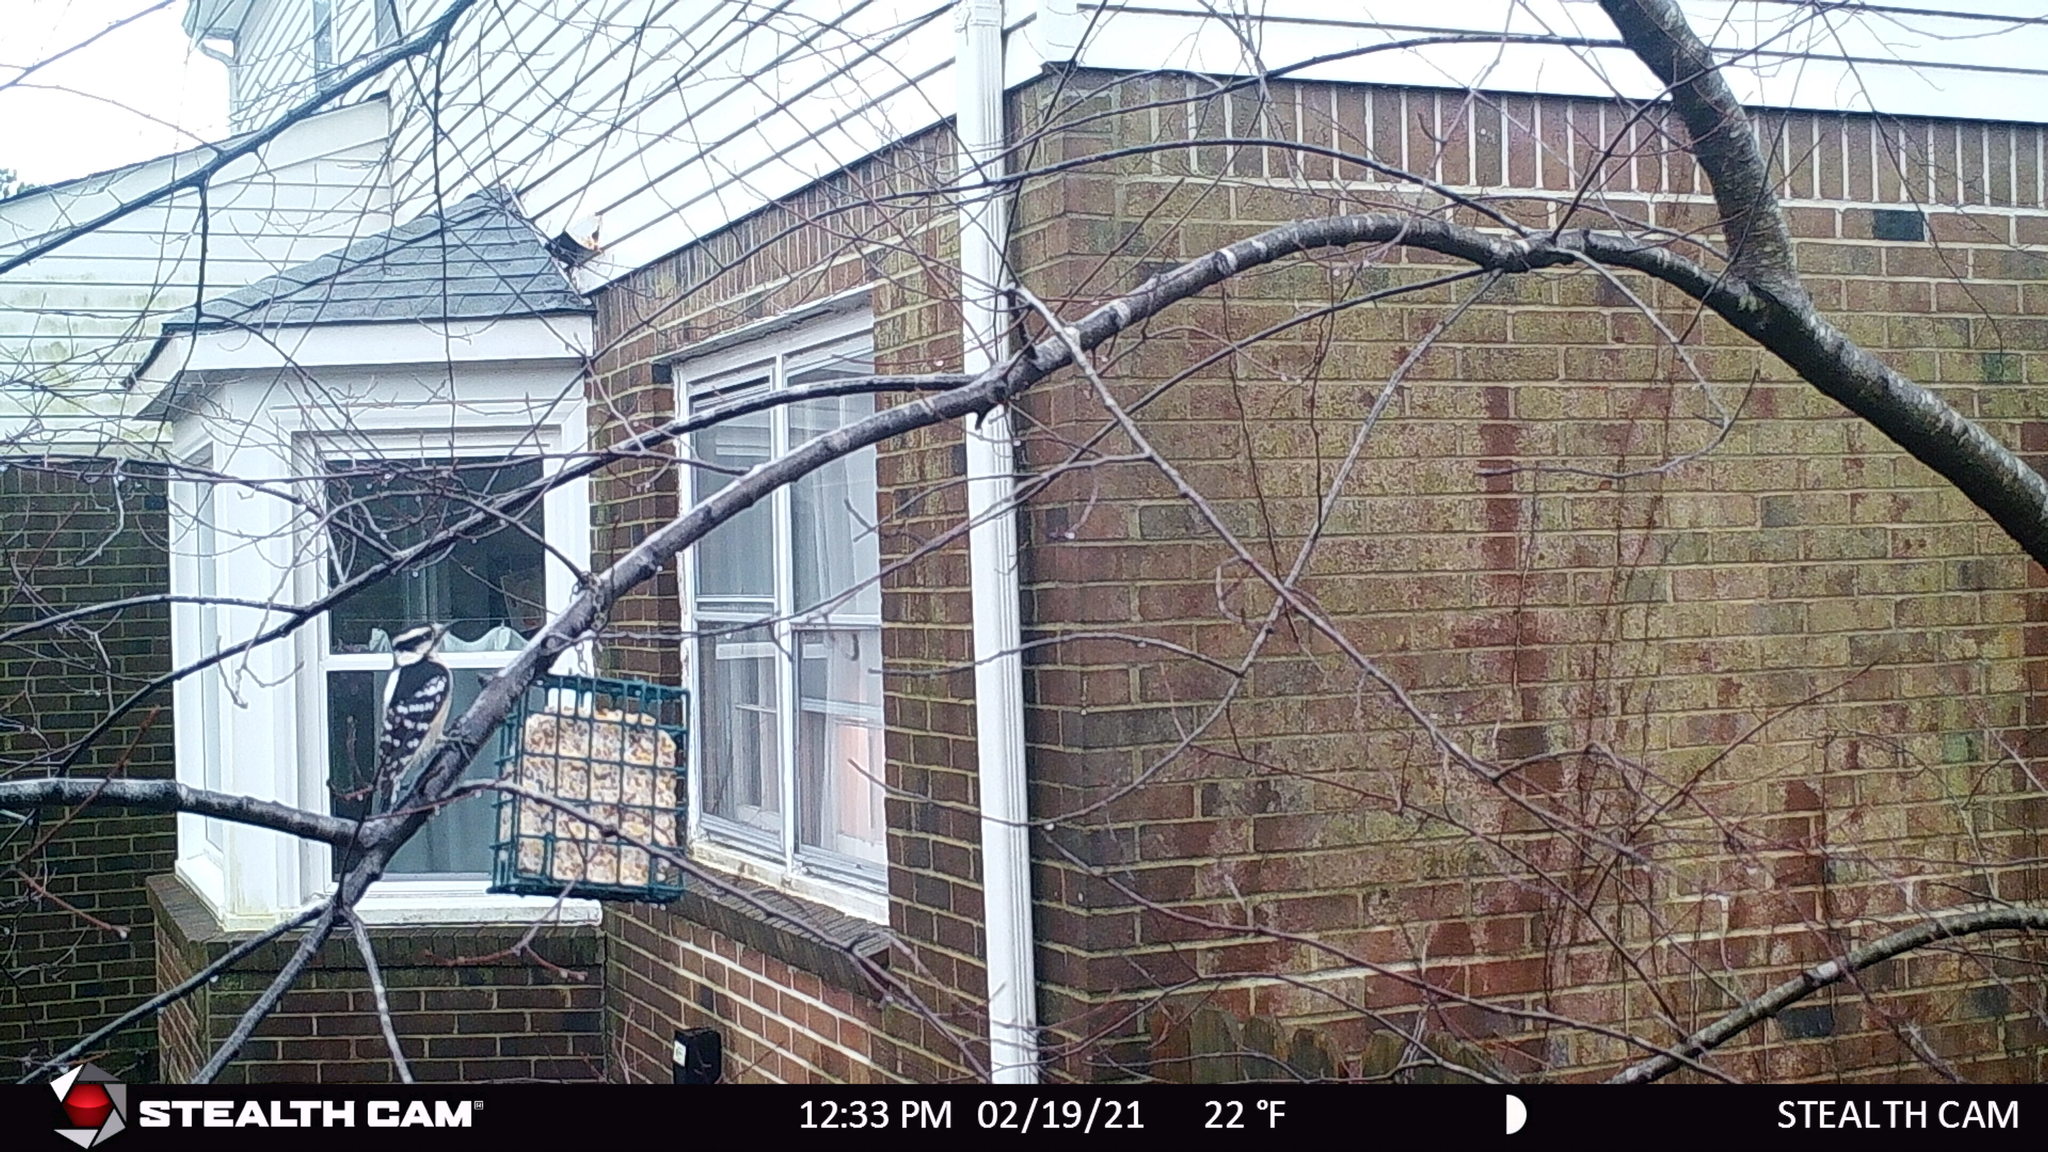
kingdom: Animalia
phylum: Chordata
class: Aves
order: Piciformes
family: Picidae
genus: Dryobates
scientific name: Dryobates pubescens
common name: Downy woodpecker
